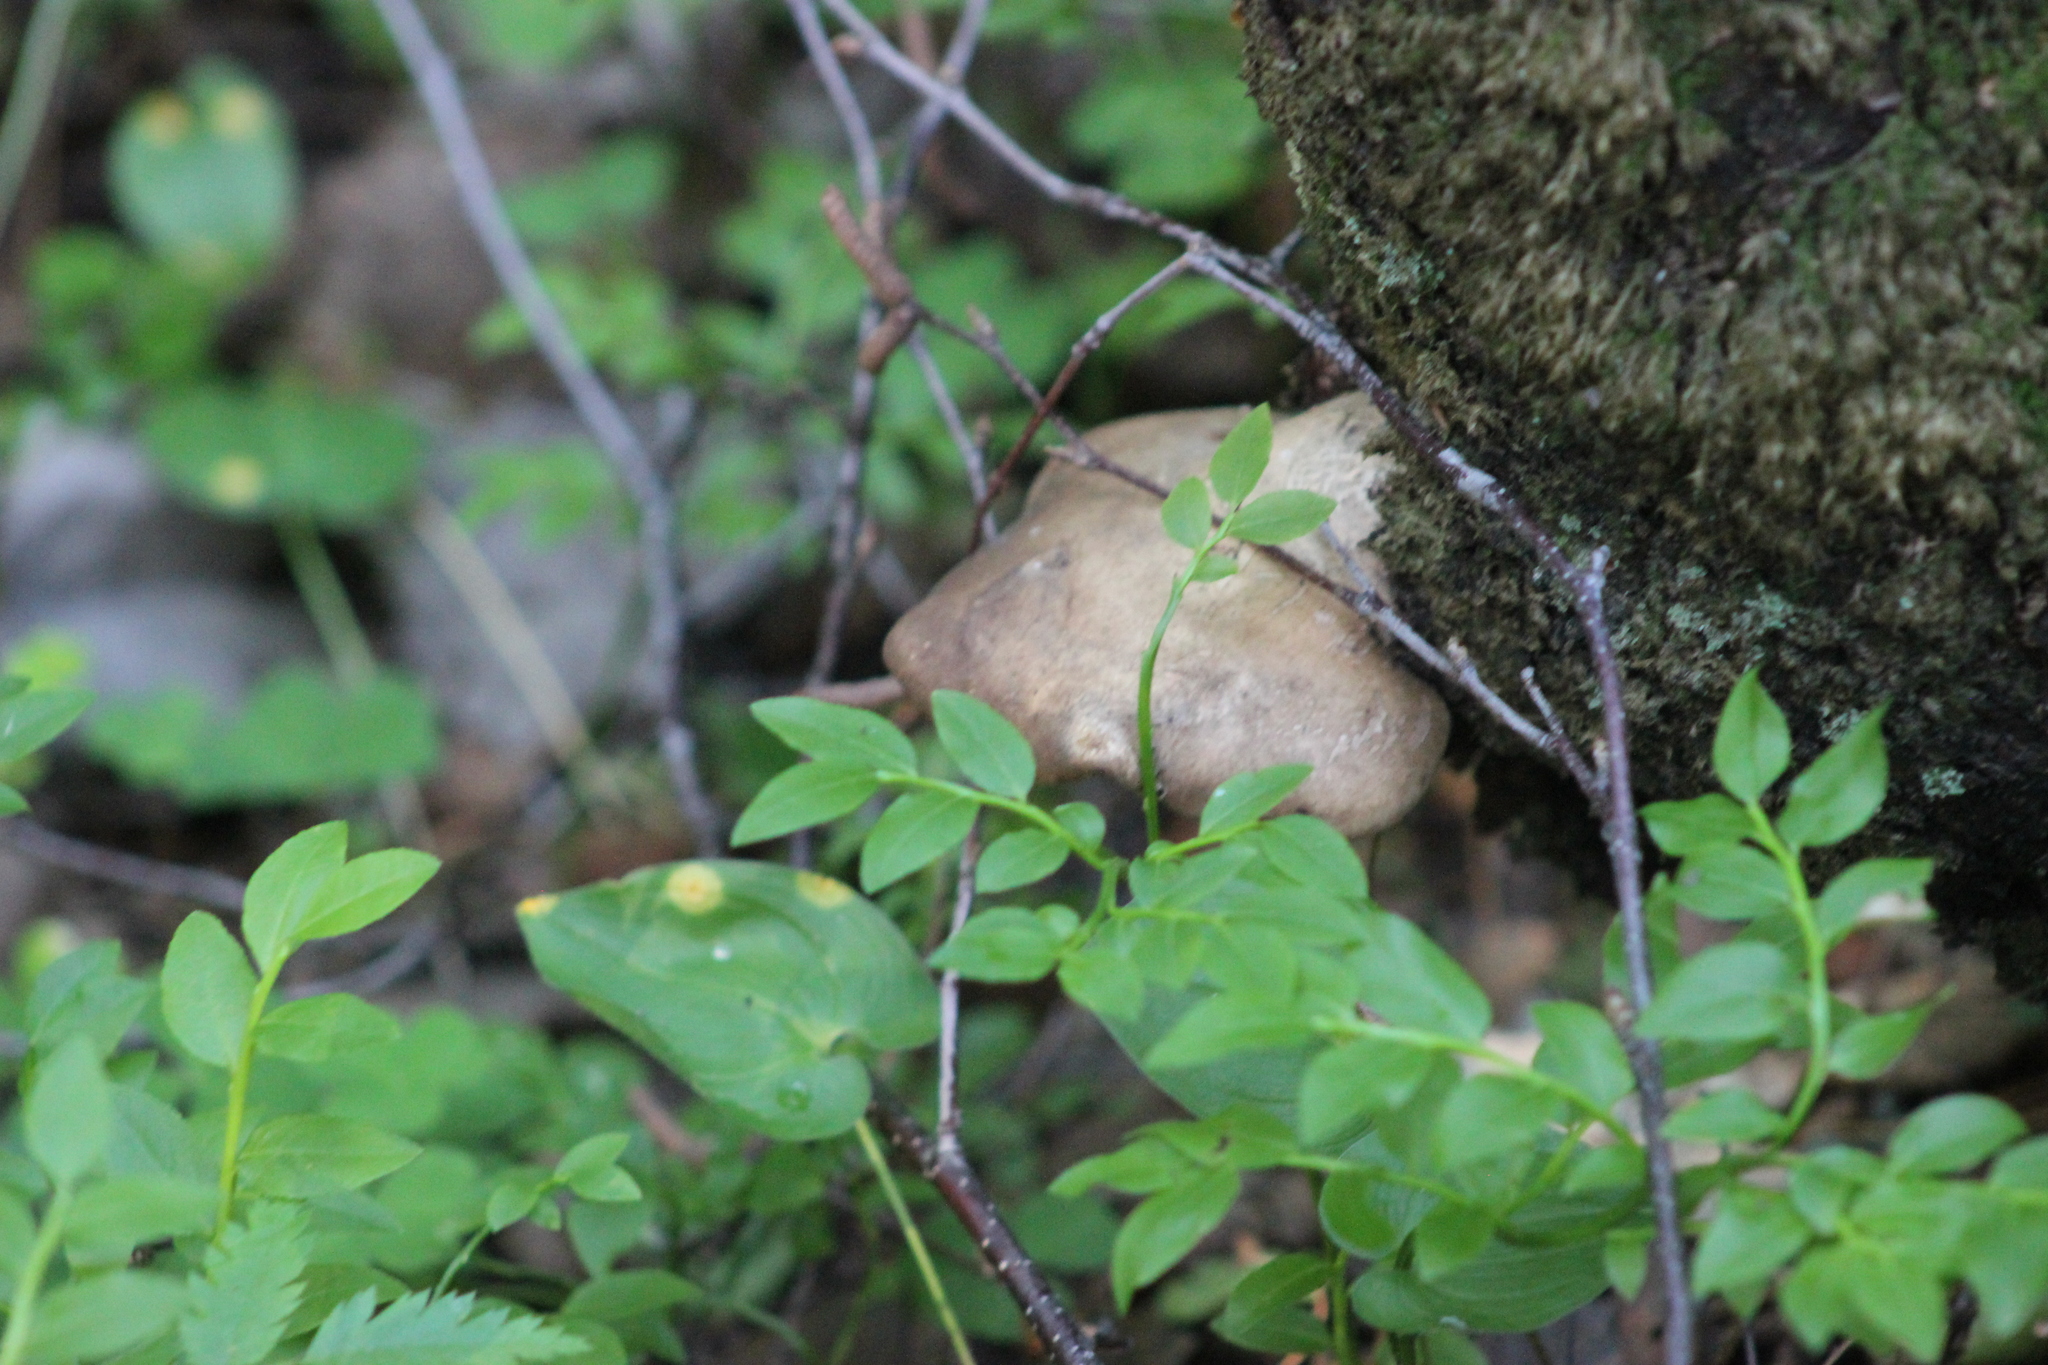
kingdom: Fungi
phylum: Basidiomycota
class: Agaricomycetes
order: Polyporales
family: Fomitopsidaceae
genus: Fomitopsis
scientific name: Fomitopsis betulina
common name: Birch polypore
